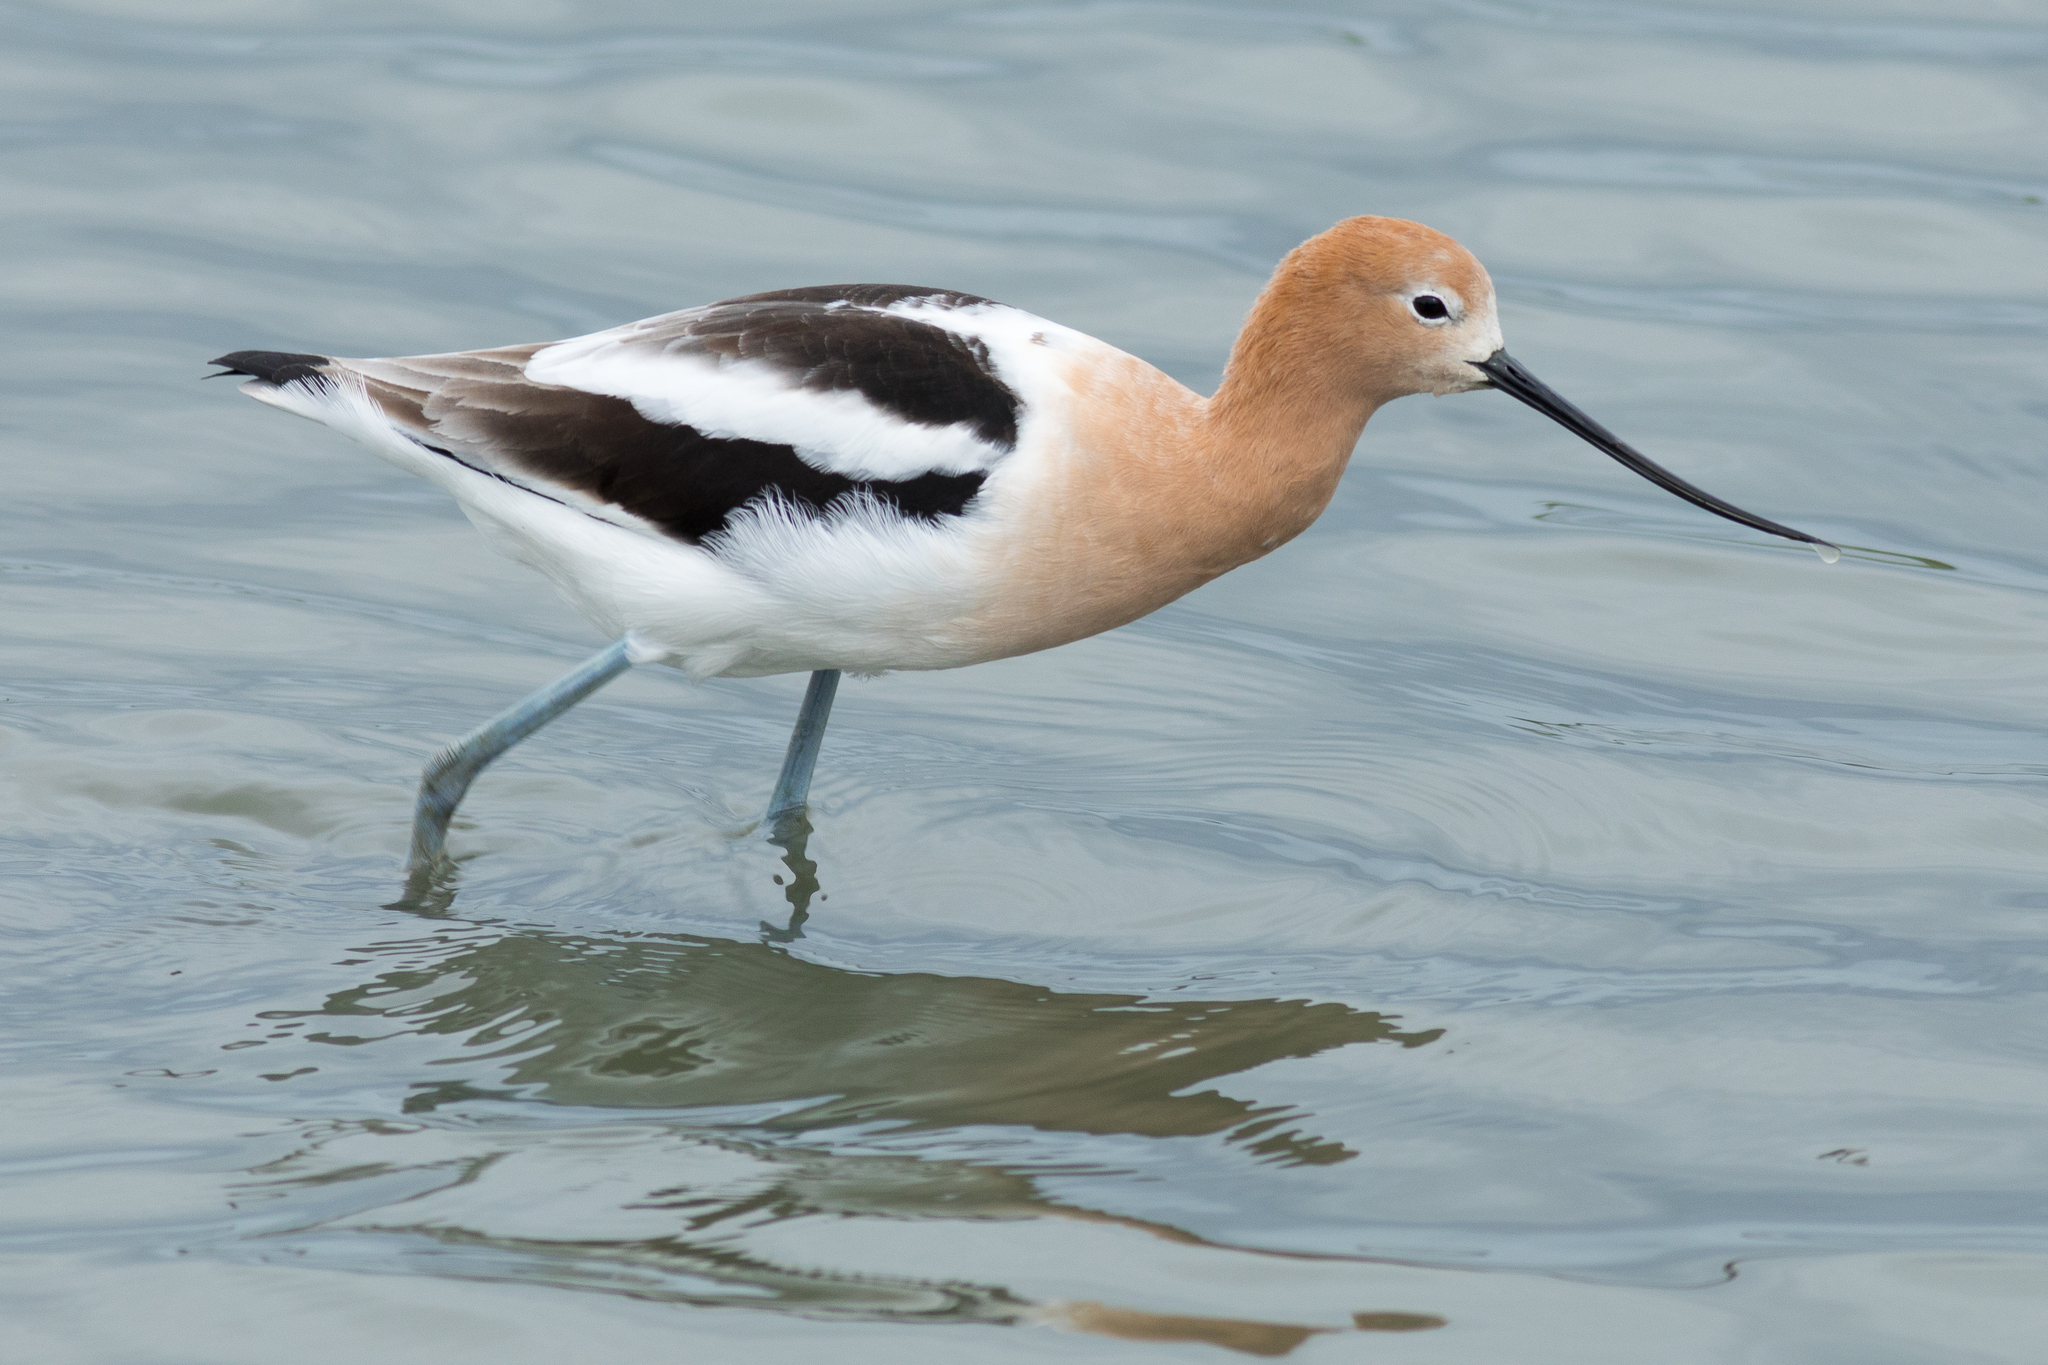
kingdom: Animalia
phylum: Chordata
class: Aves
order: Charadriiformes
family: Recurvirostridae
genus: Recurvirostra
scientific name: Recurvirostra americana
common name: American avocet
